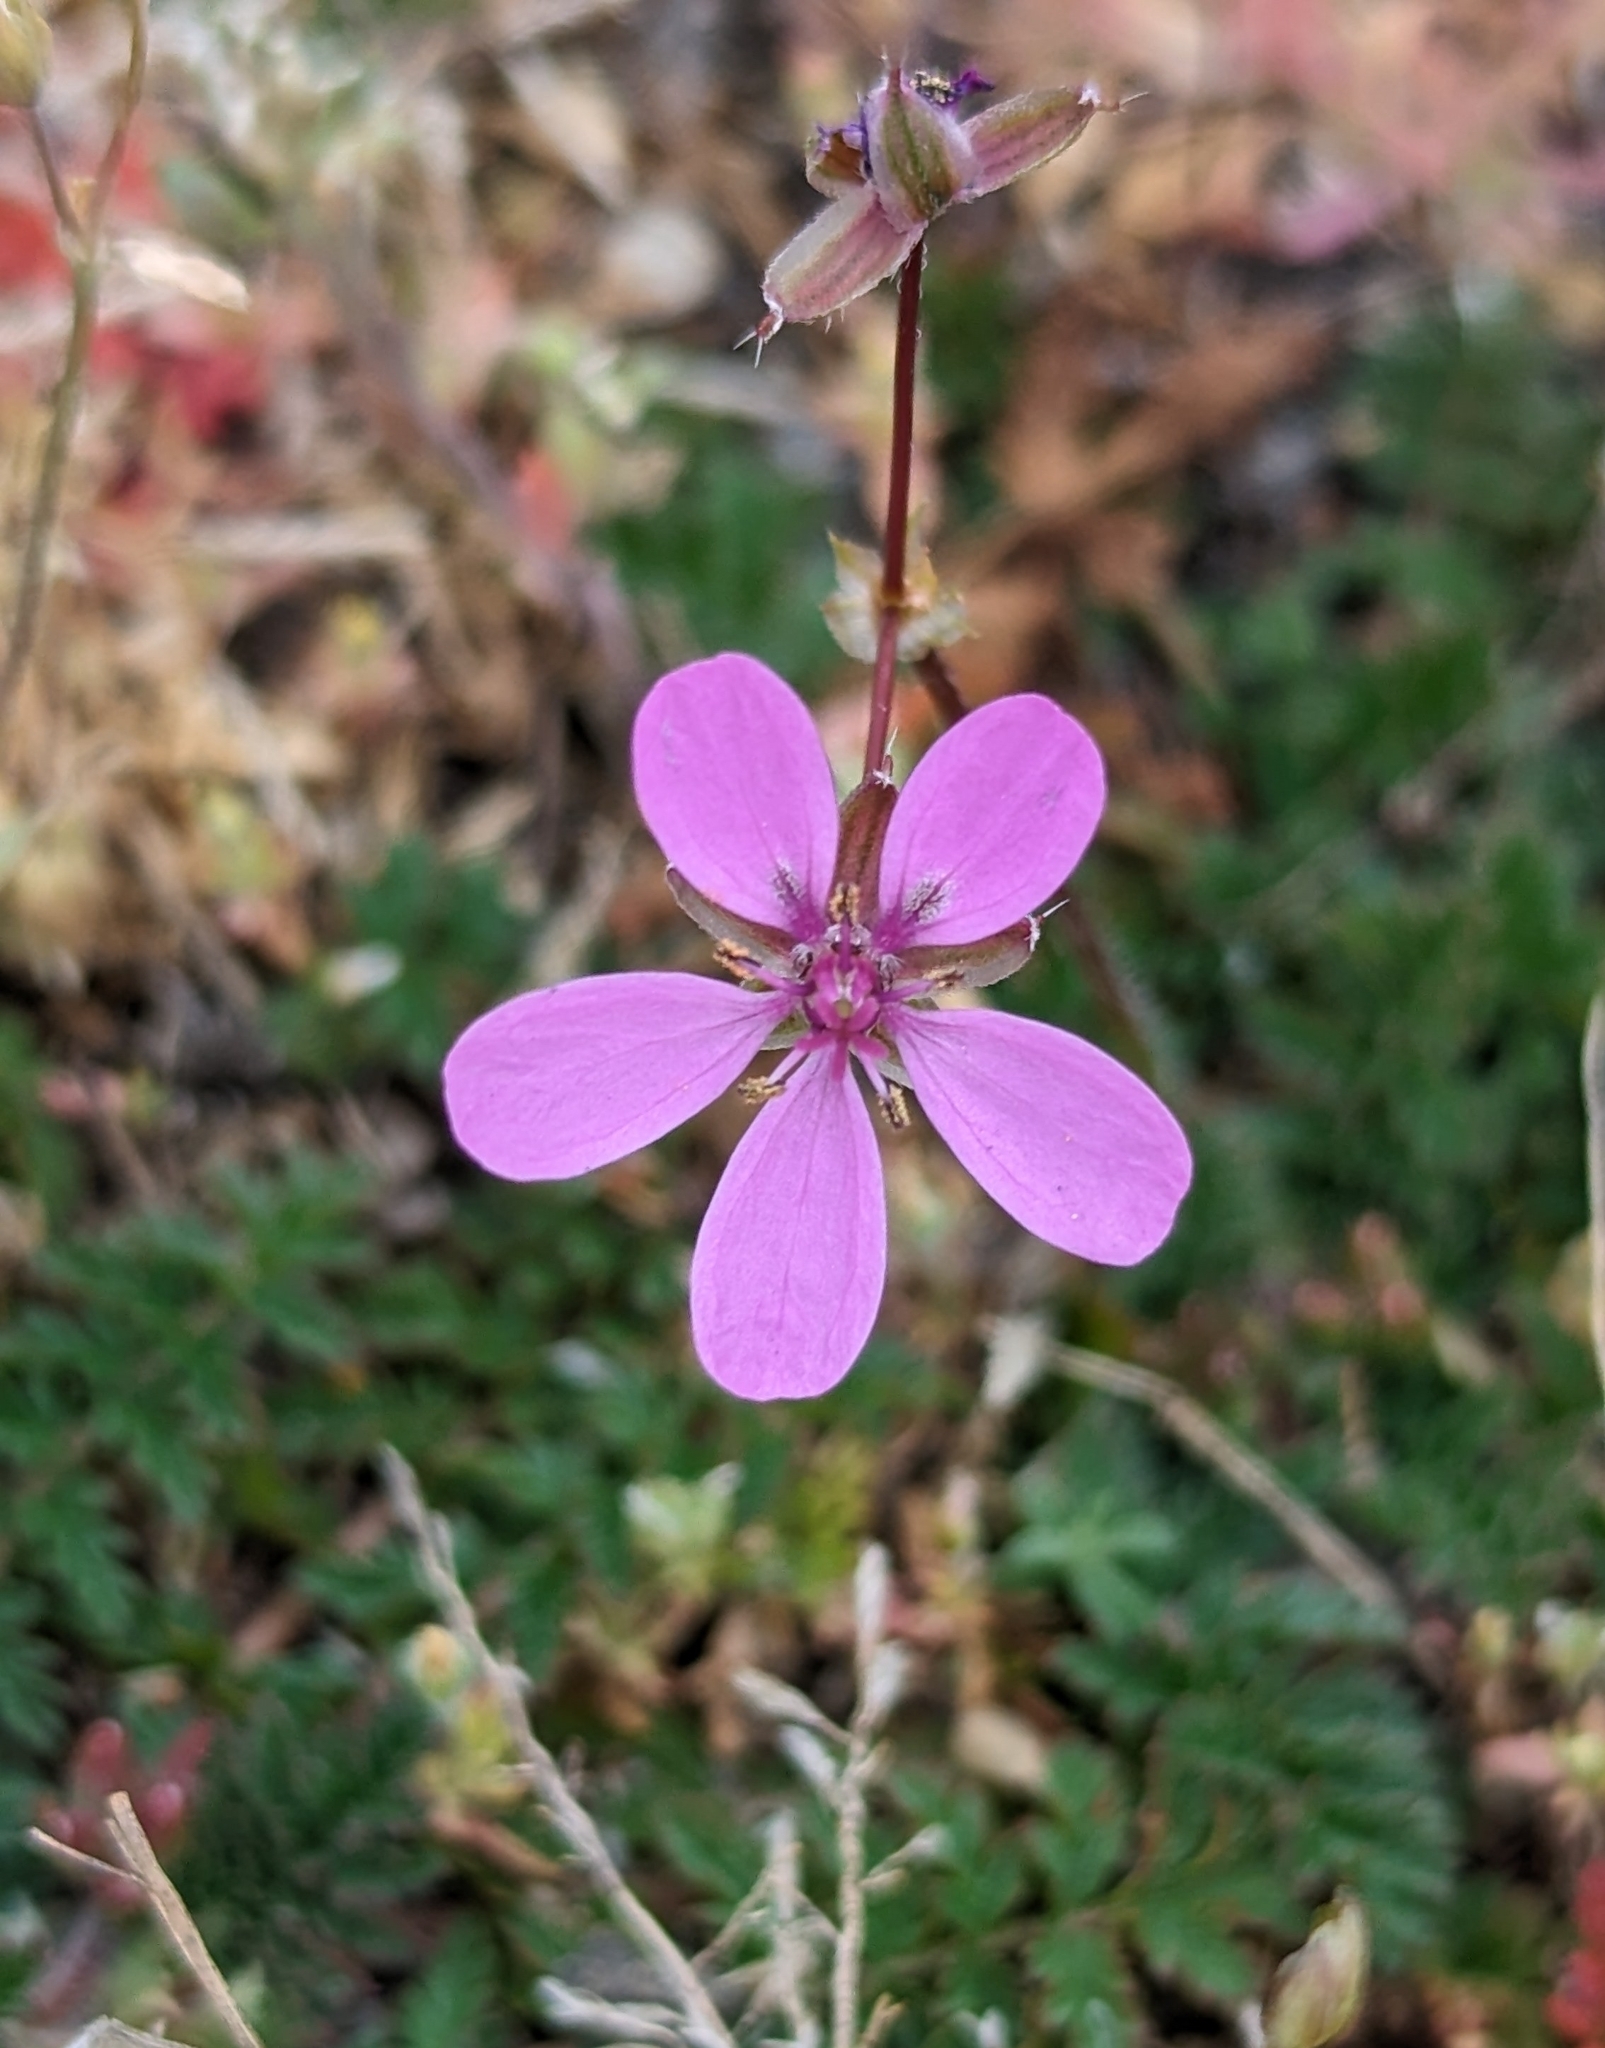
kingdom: Plantae
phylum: Tracheophyta
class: Magnoliopsida
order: Geraniales
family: Geraniaceae
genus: Erodium
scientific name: Erodium cicutarium
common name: Common stork's-bill
